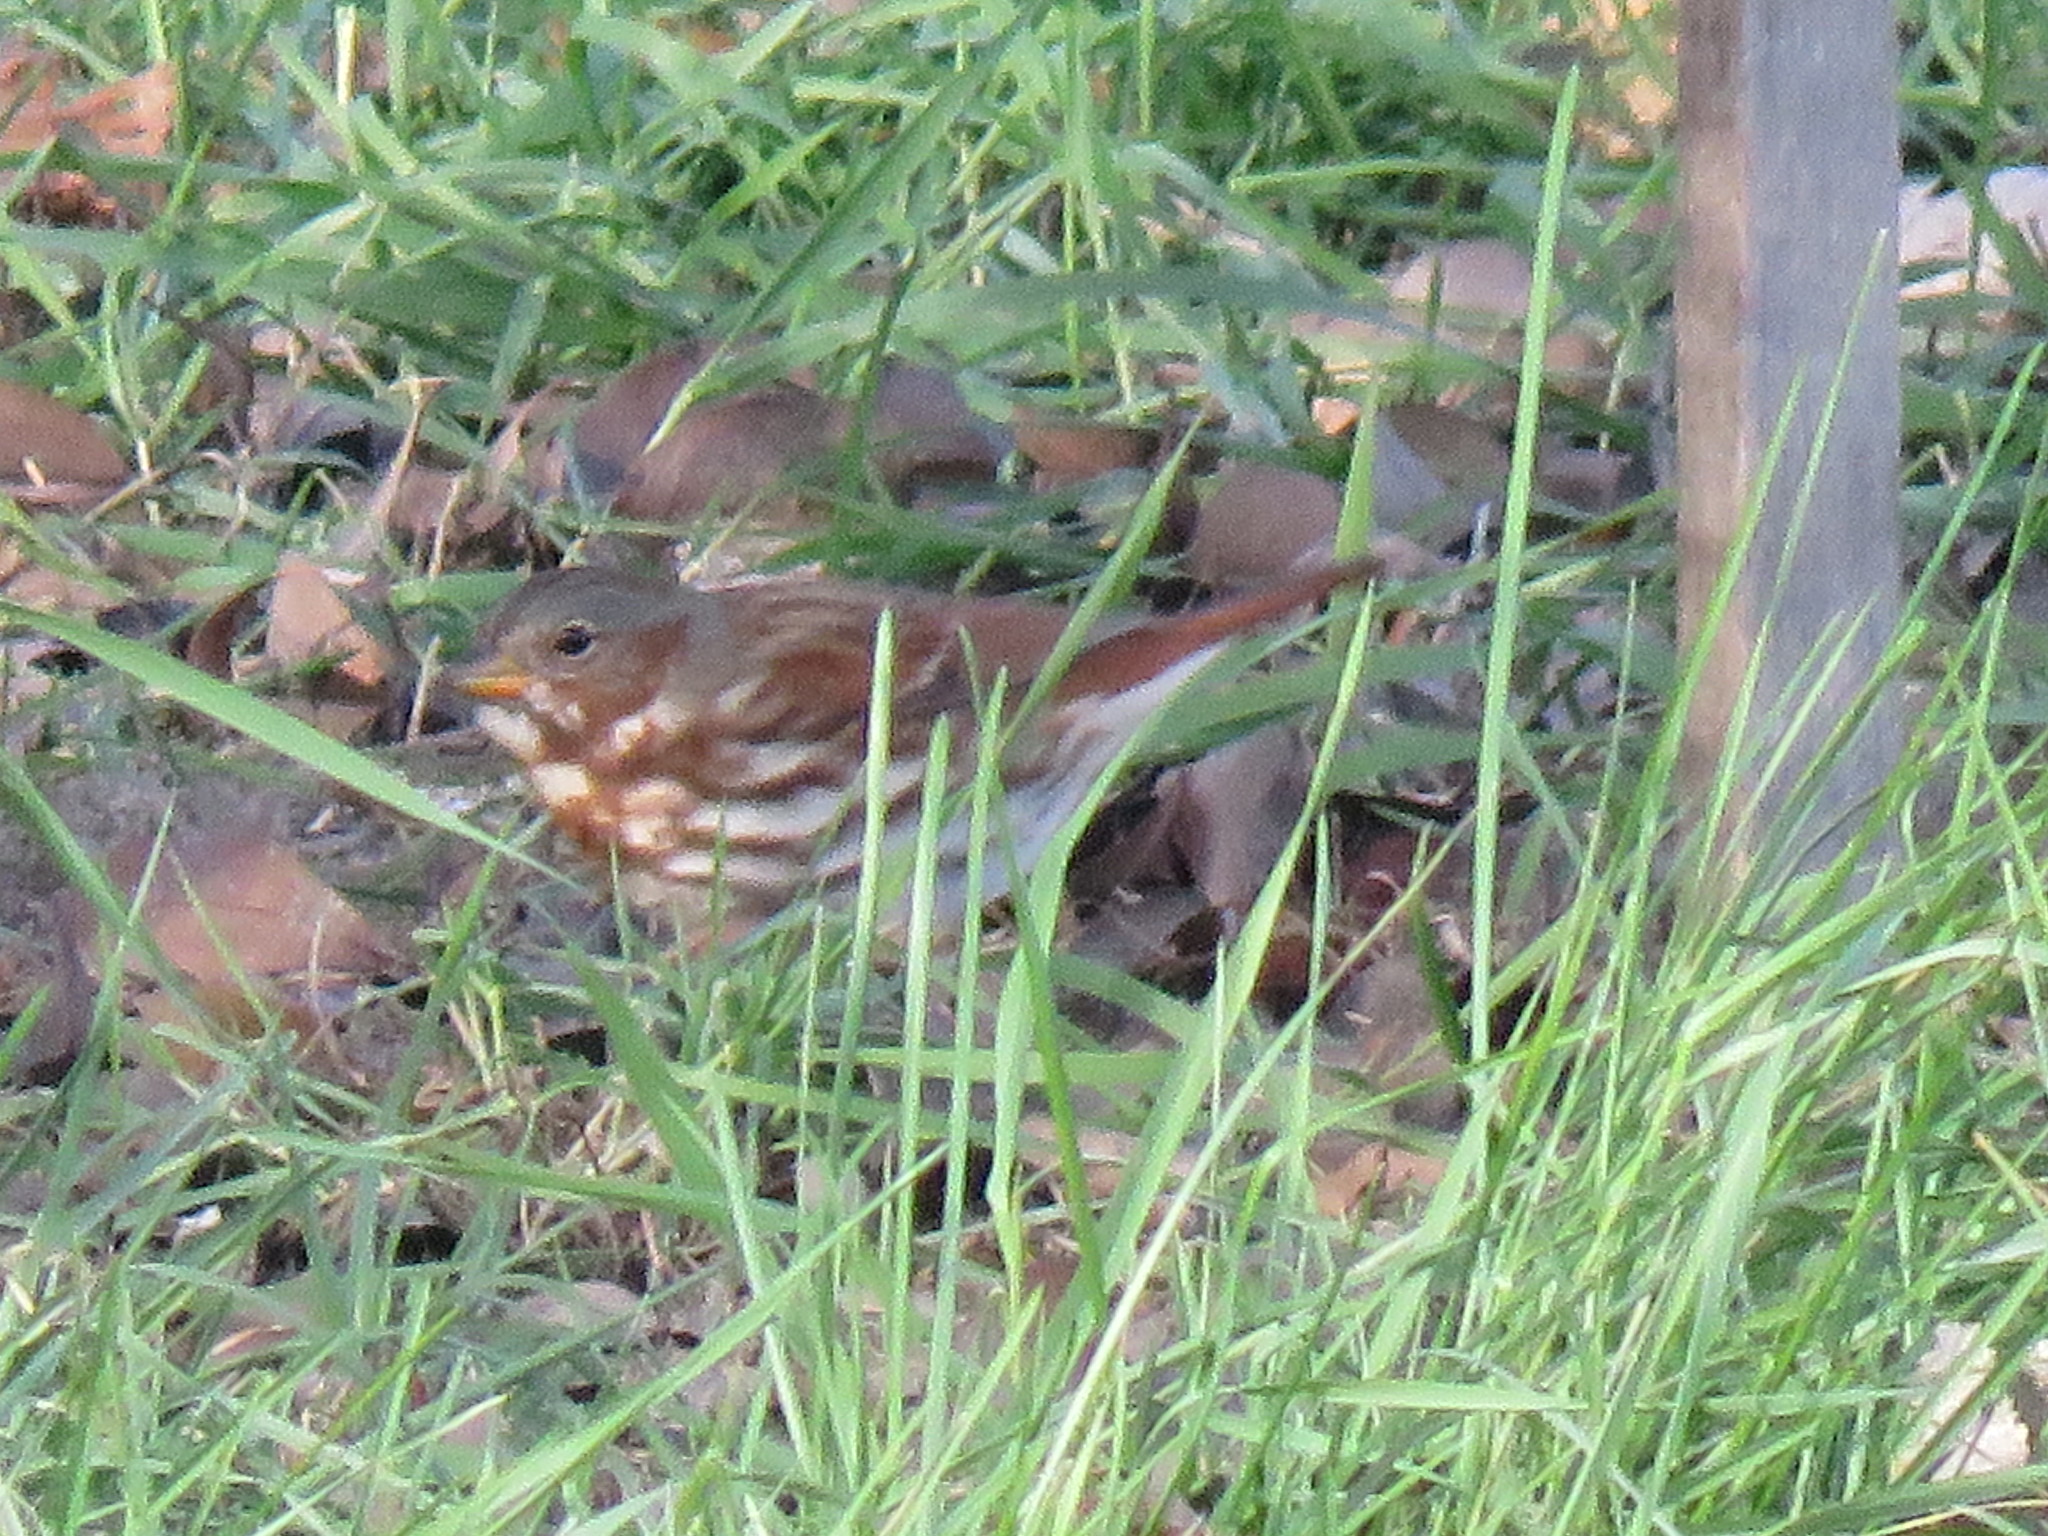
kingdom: Animalia
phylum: Chordata
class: Aves
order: Passeriformes
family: Passerellidae
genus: Passerella
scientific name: Passerella iliaca
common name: Fox sparrow
